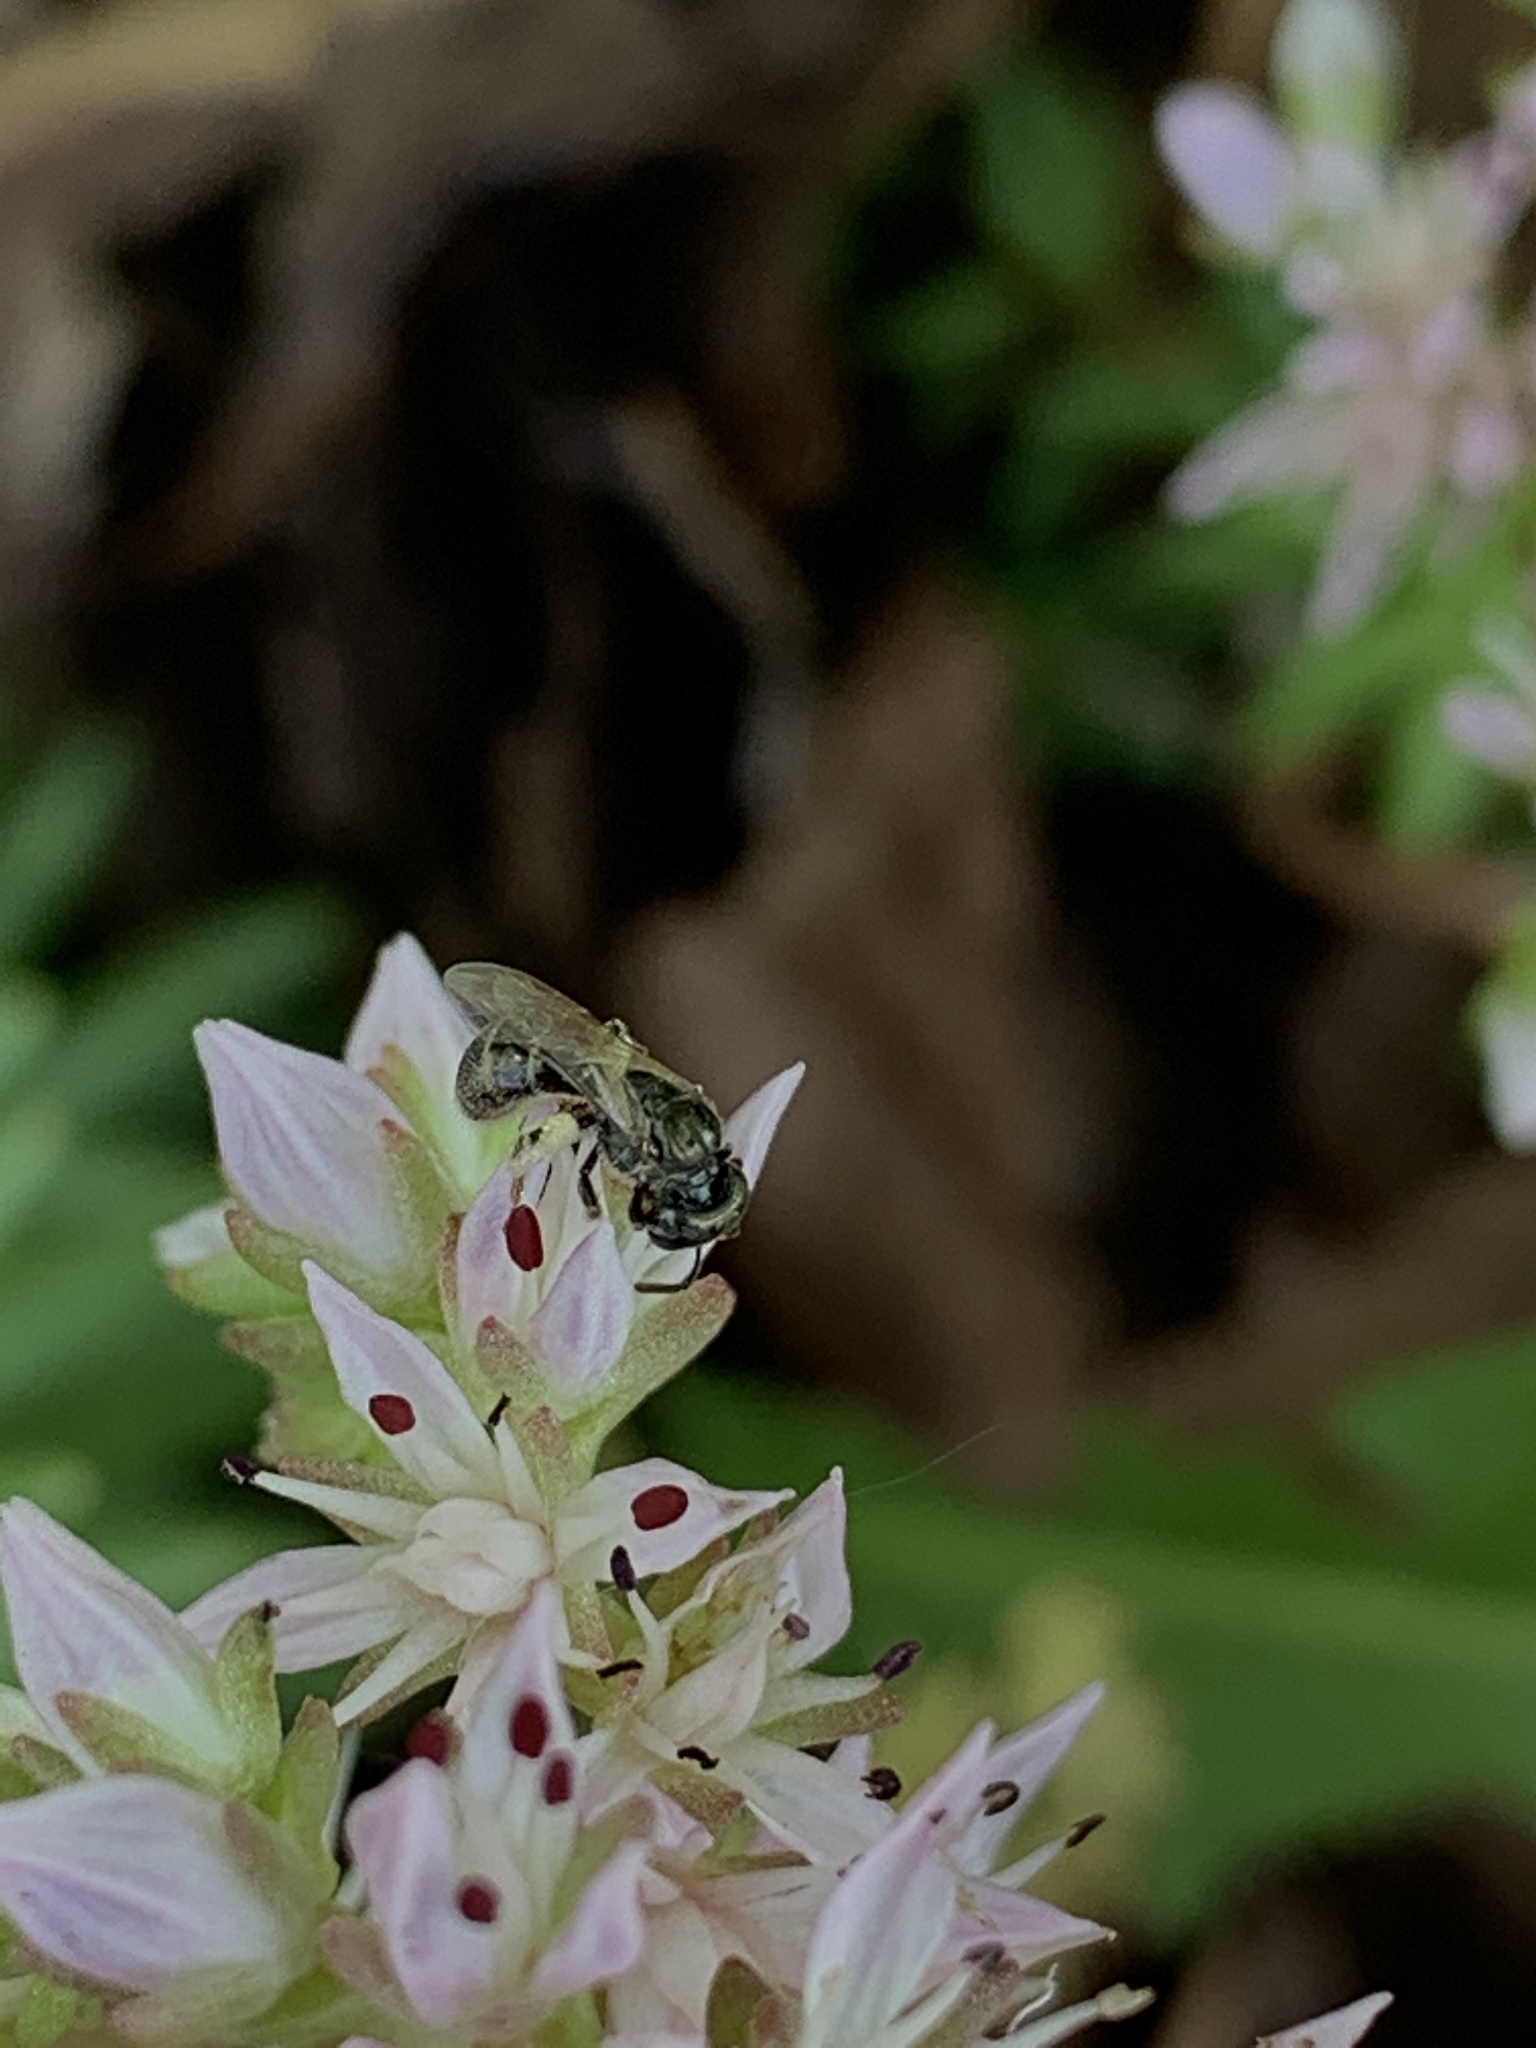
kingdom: Animalia
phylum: Arthropoda
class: Insecta
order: Hymenoptera
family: Halictidae
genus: Dialictus
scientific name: Dialictus
